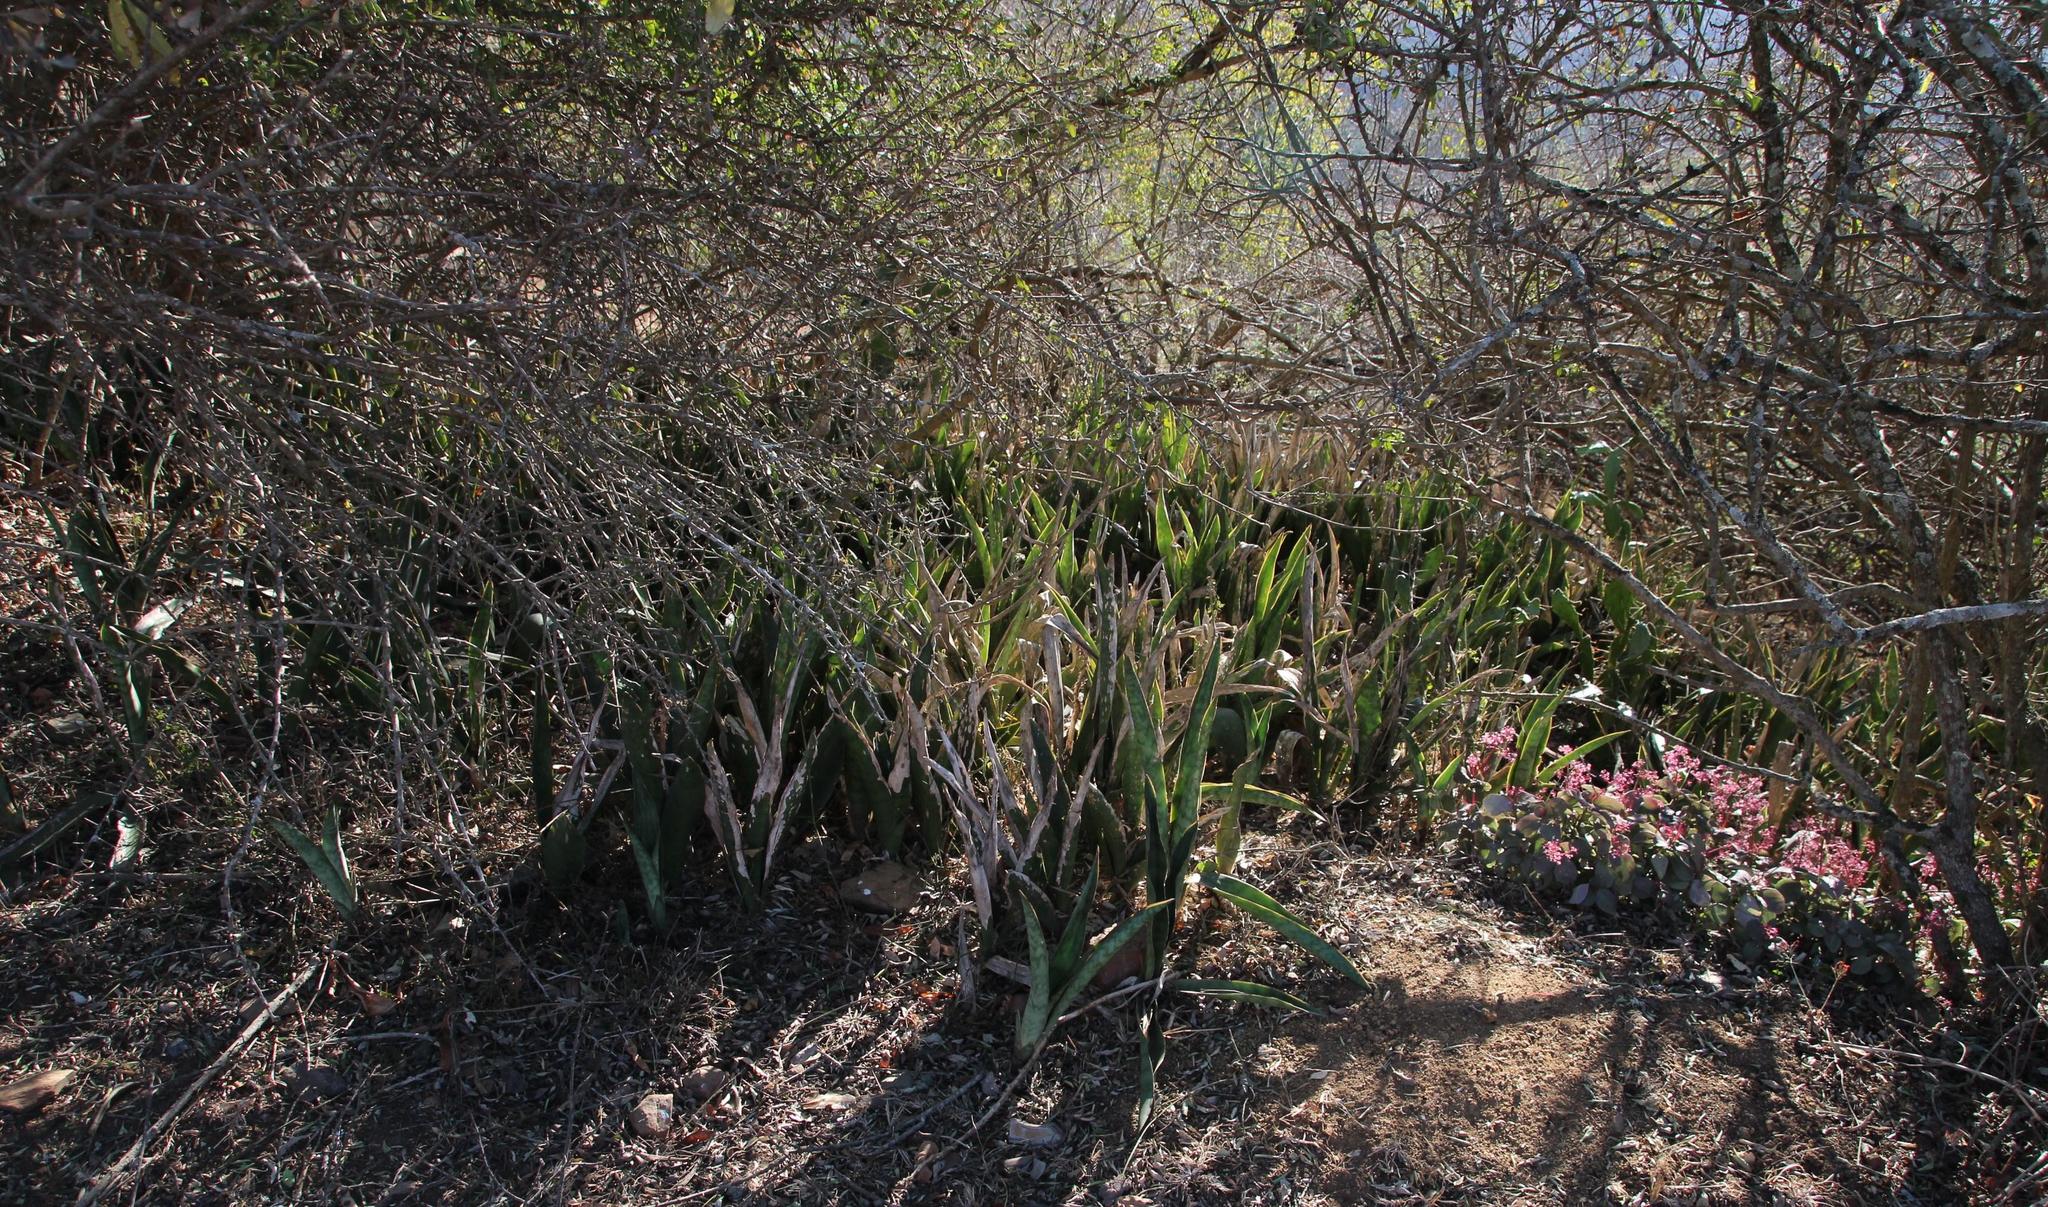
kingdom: Plantae
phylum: Tracheophyta
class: Liliopsida
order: Asparagales
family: Asparagaceae
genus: Dracaena
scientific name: Dracaena hyacinthoides
